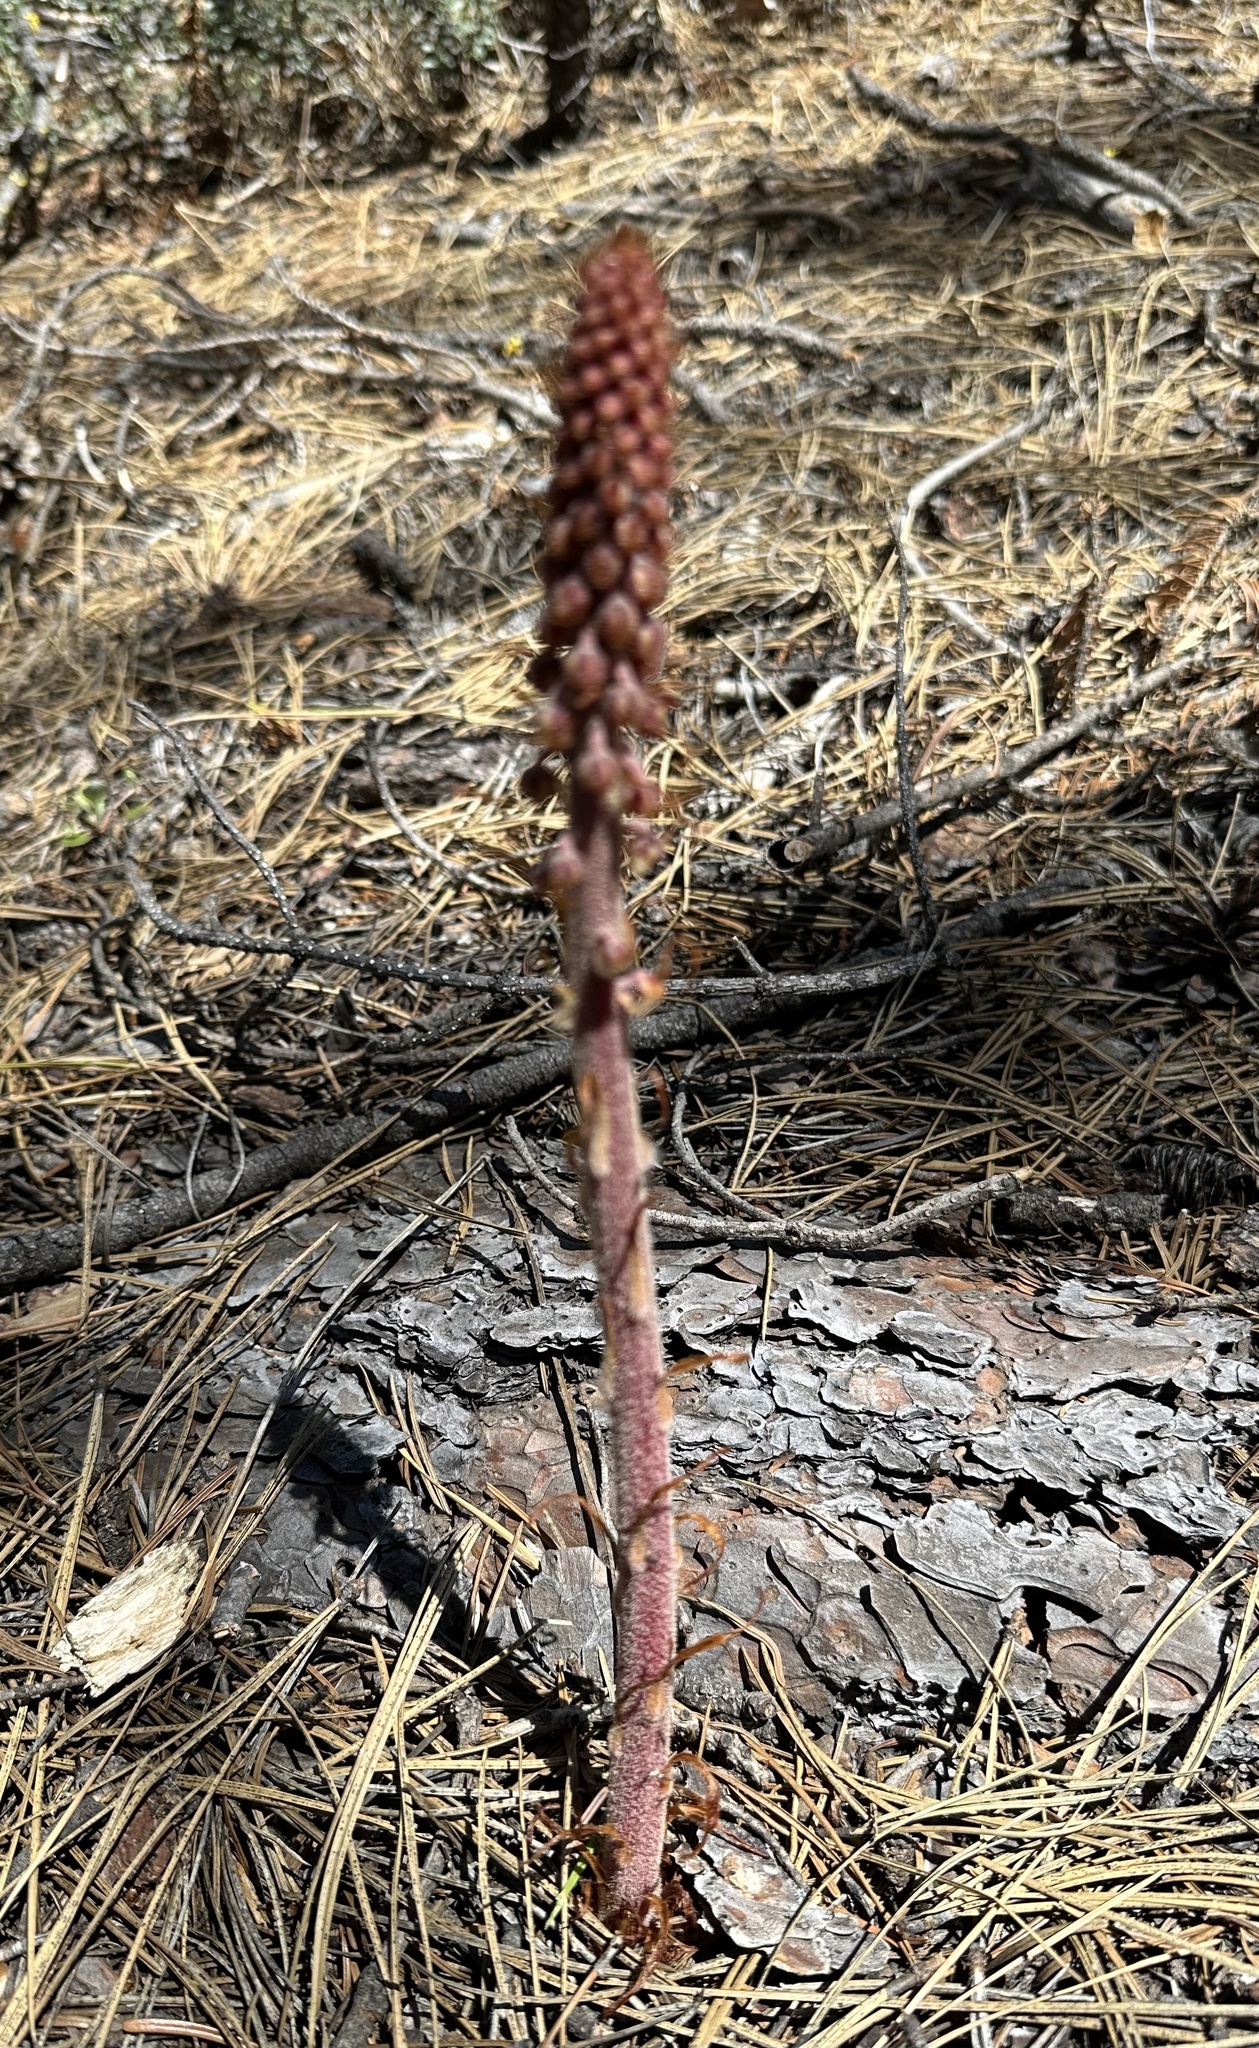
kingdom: Plantae
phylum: Tracheophyta
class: Magnoliopsida
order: Ericales
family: Ericaceae
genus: Pterospora
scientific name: Pterospora andromedea
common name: Giant bird's-nest
